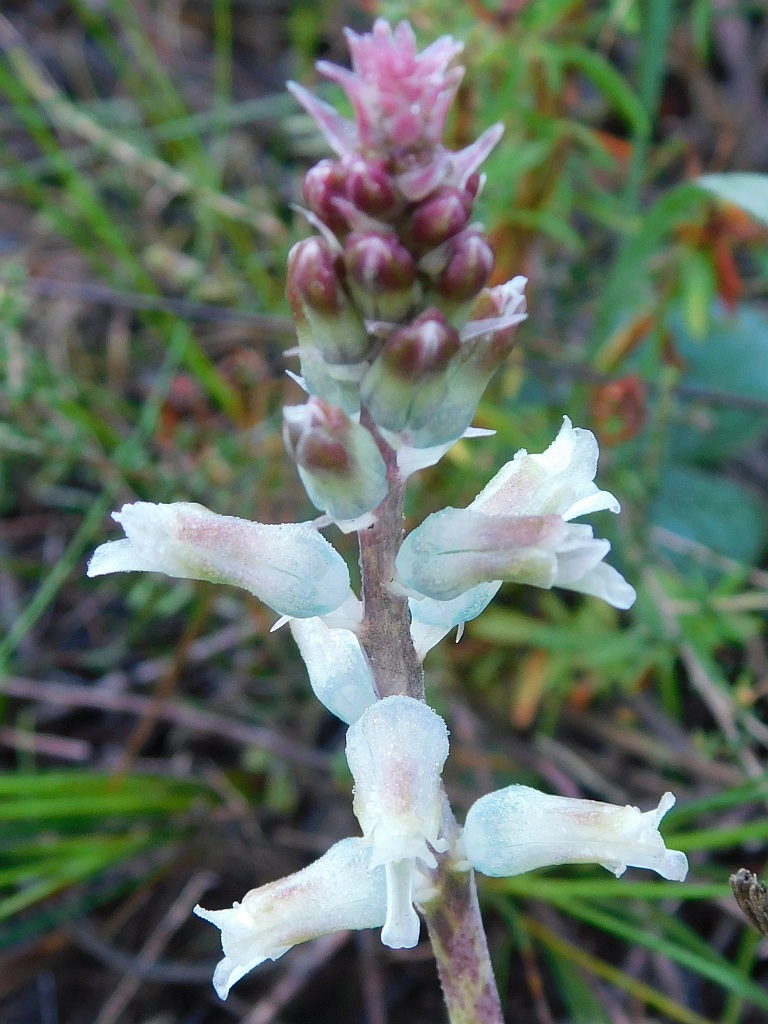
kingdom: Plantae
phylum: Tracheophyta
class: Liliopsida
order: Asparagales
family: Asparagaceae
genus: Lachenalia
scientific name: Lachenalia judithiae
